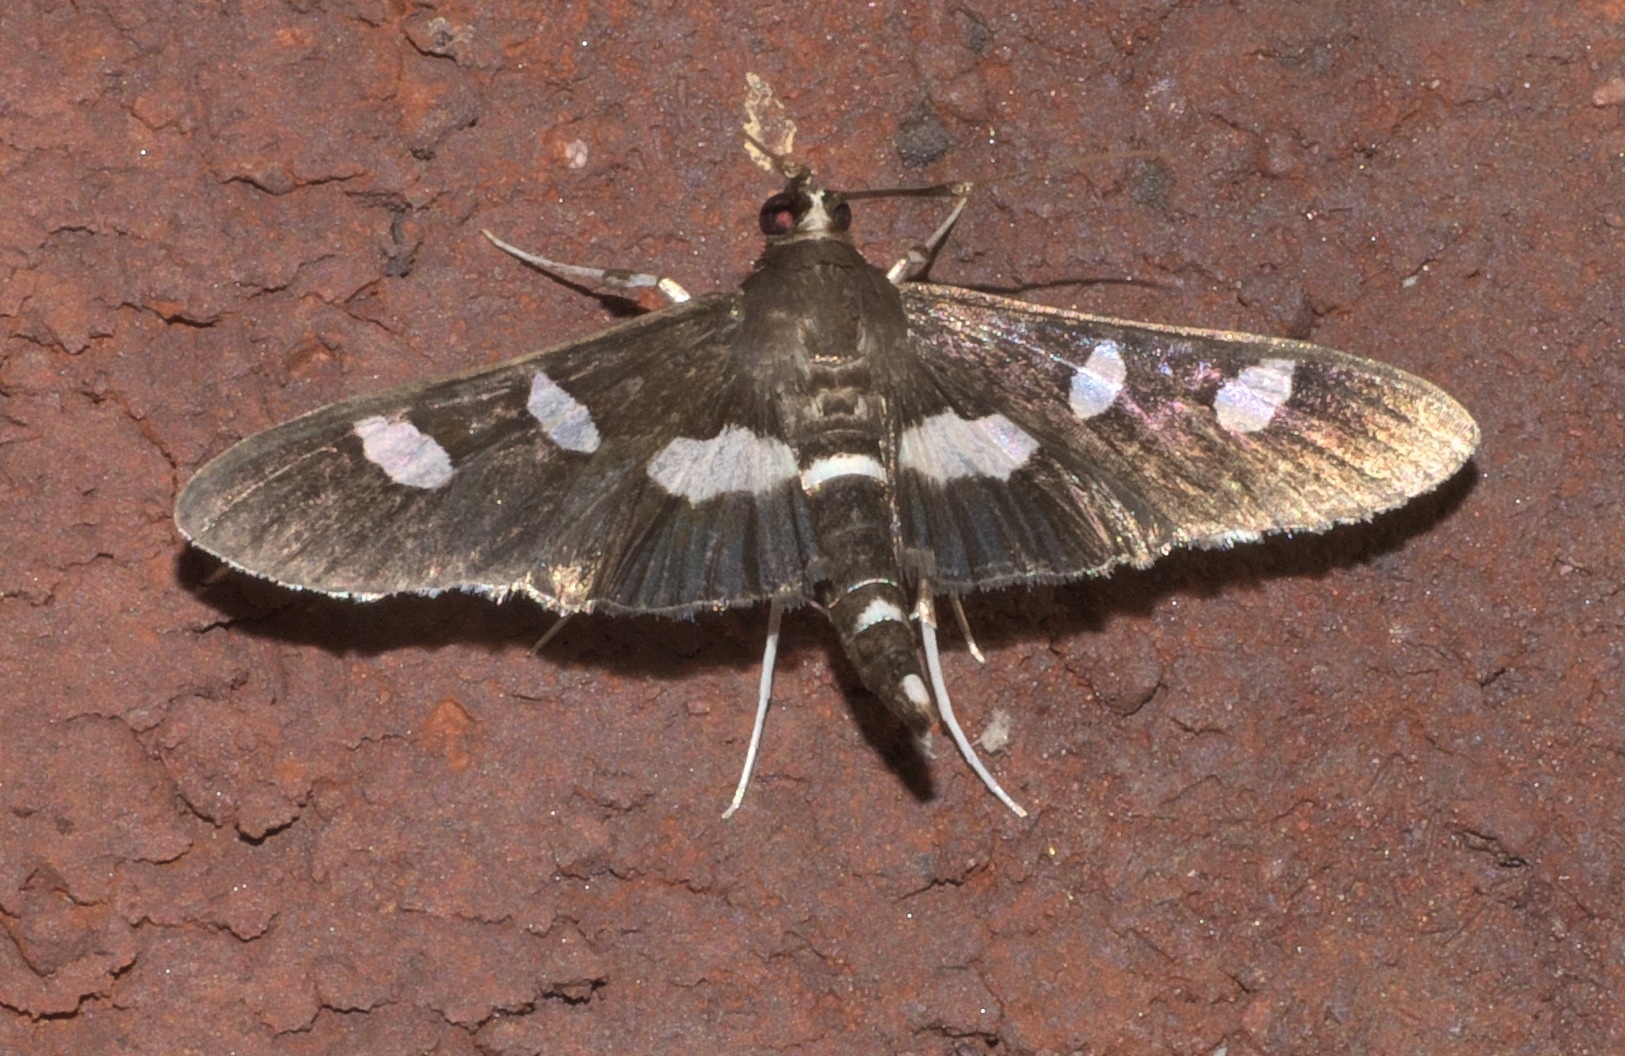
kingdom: Animalia
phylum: Arthropoda
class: Insecta
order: Lepidoptera
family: Crambidae
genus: Desmia
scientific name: Desmia
